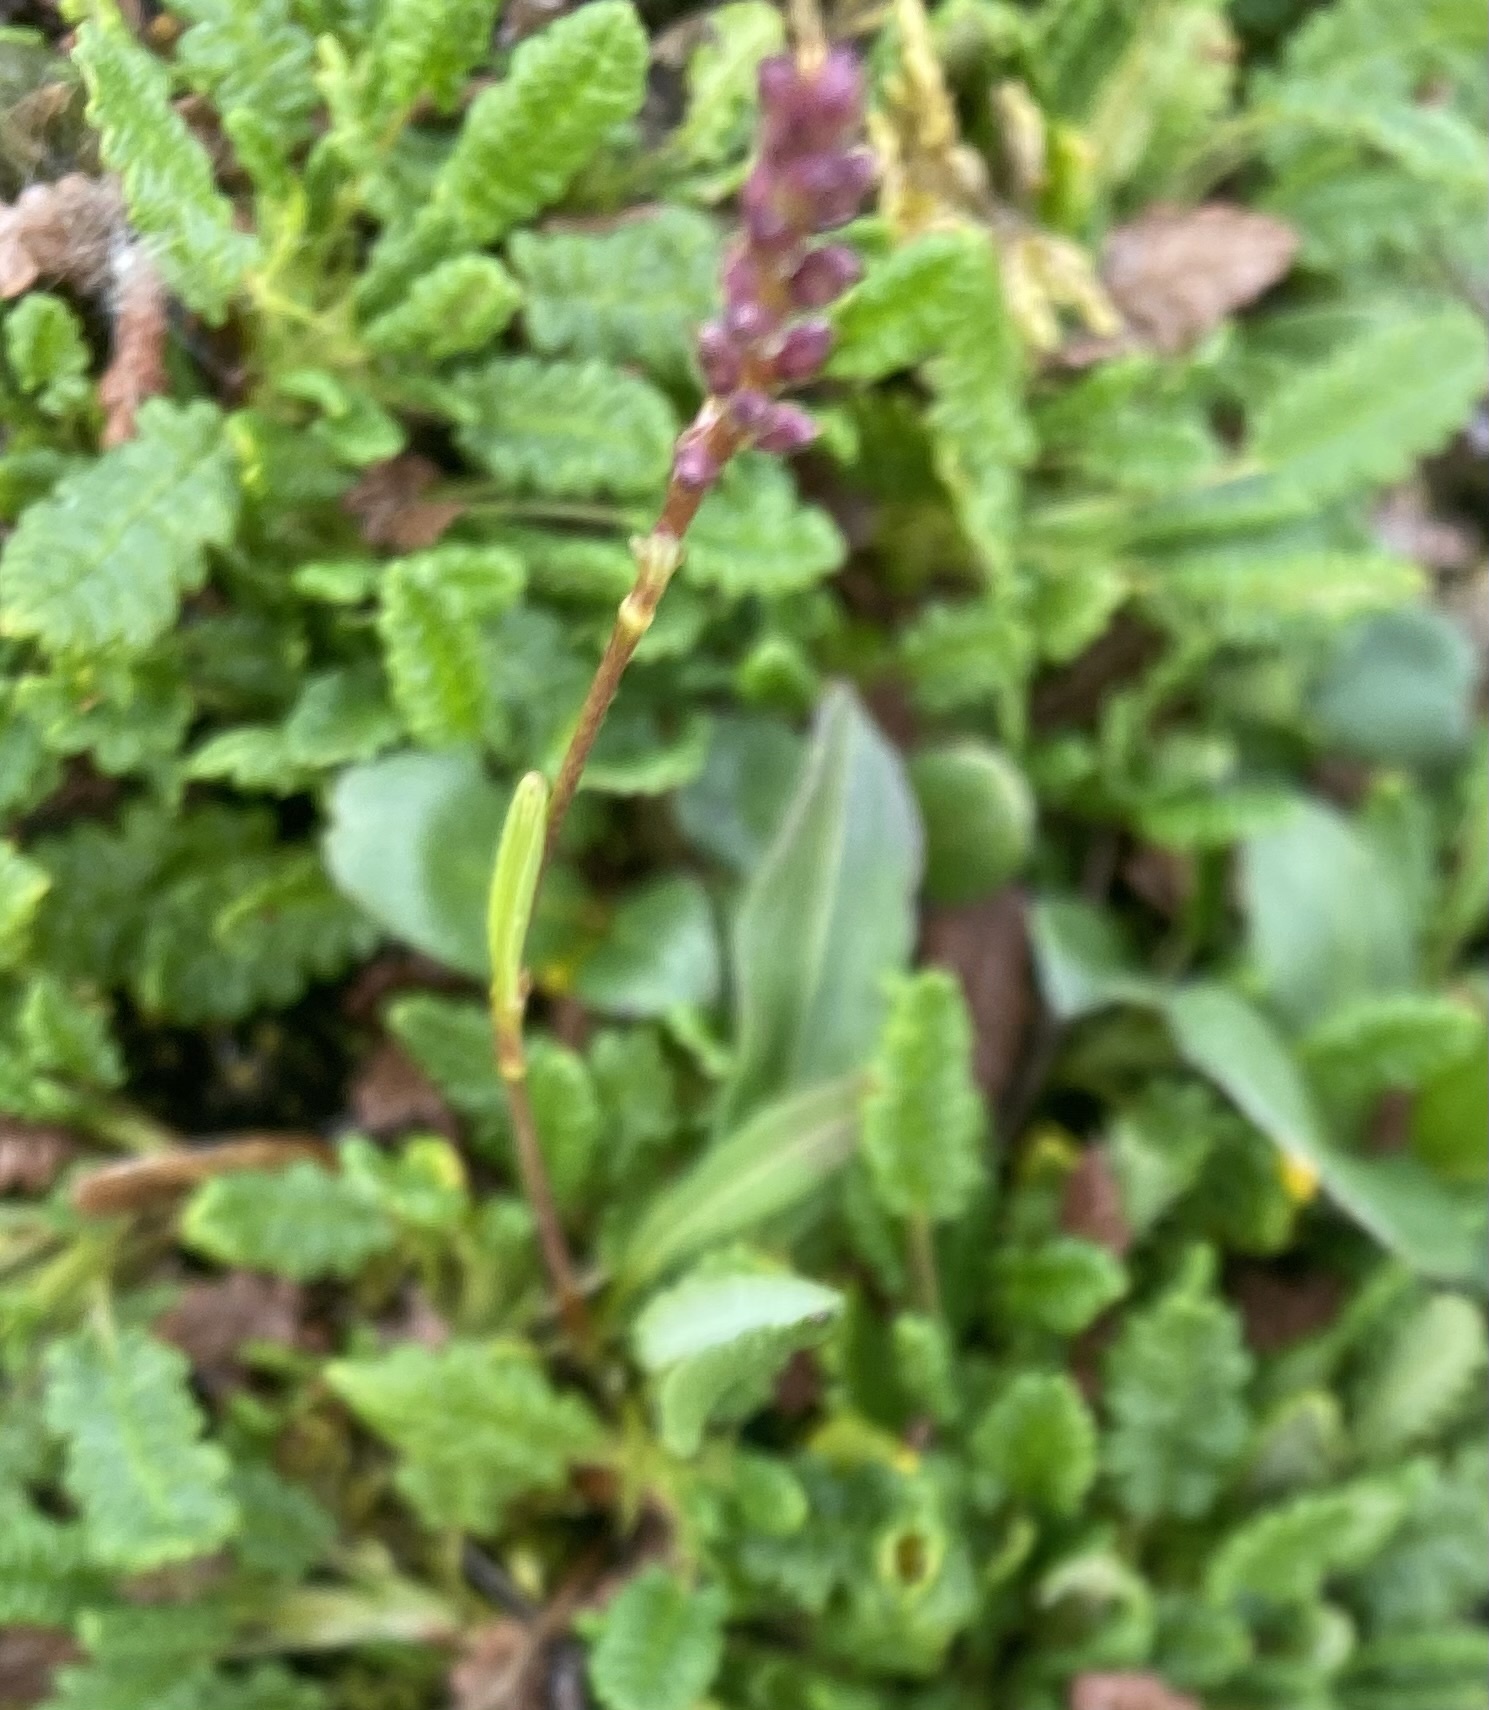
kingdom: Plantae
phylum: Tracheophyta
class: Magnoliopsida
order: Caryophyllales
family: Polygonaceae
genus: Bistorta
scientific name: Bistorta vivipara
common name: Alpine bistort
